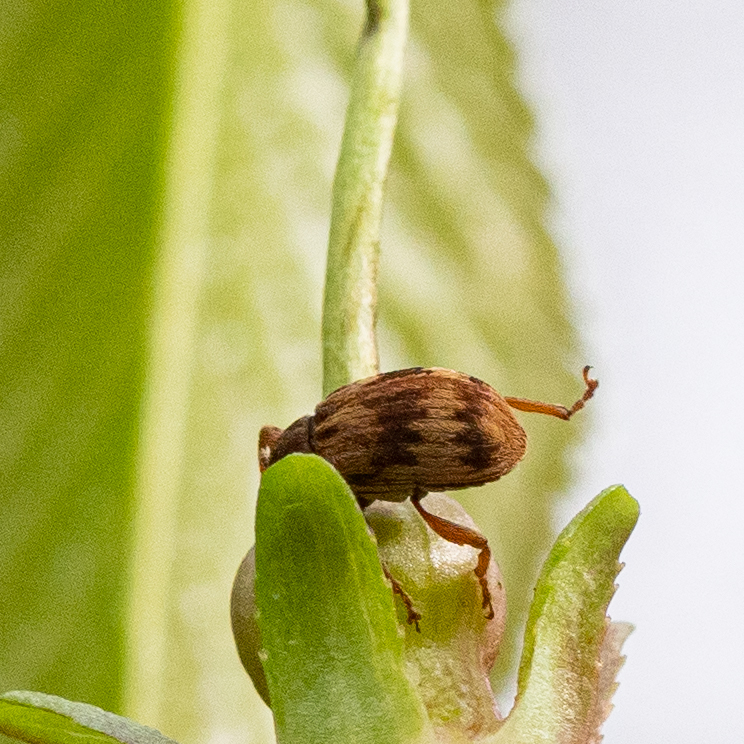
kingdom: Animalia
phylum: Arthropoda
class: Insecta
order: Coleoptera
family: Curculionidae
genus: Anthonomus
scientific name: Anthonomus rectirostris
